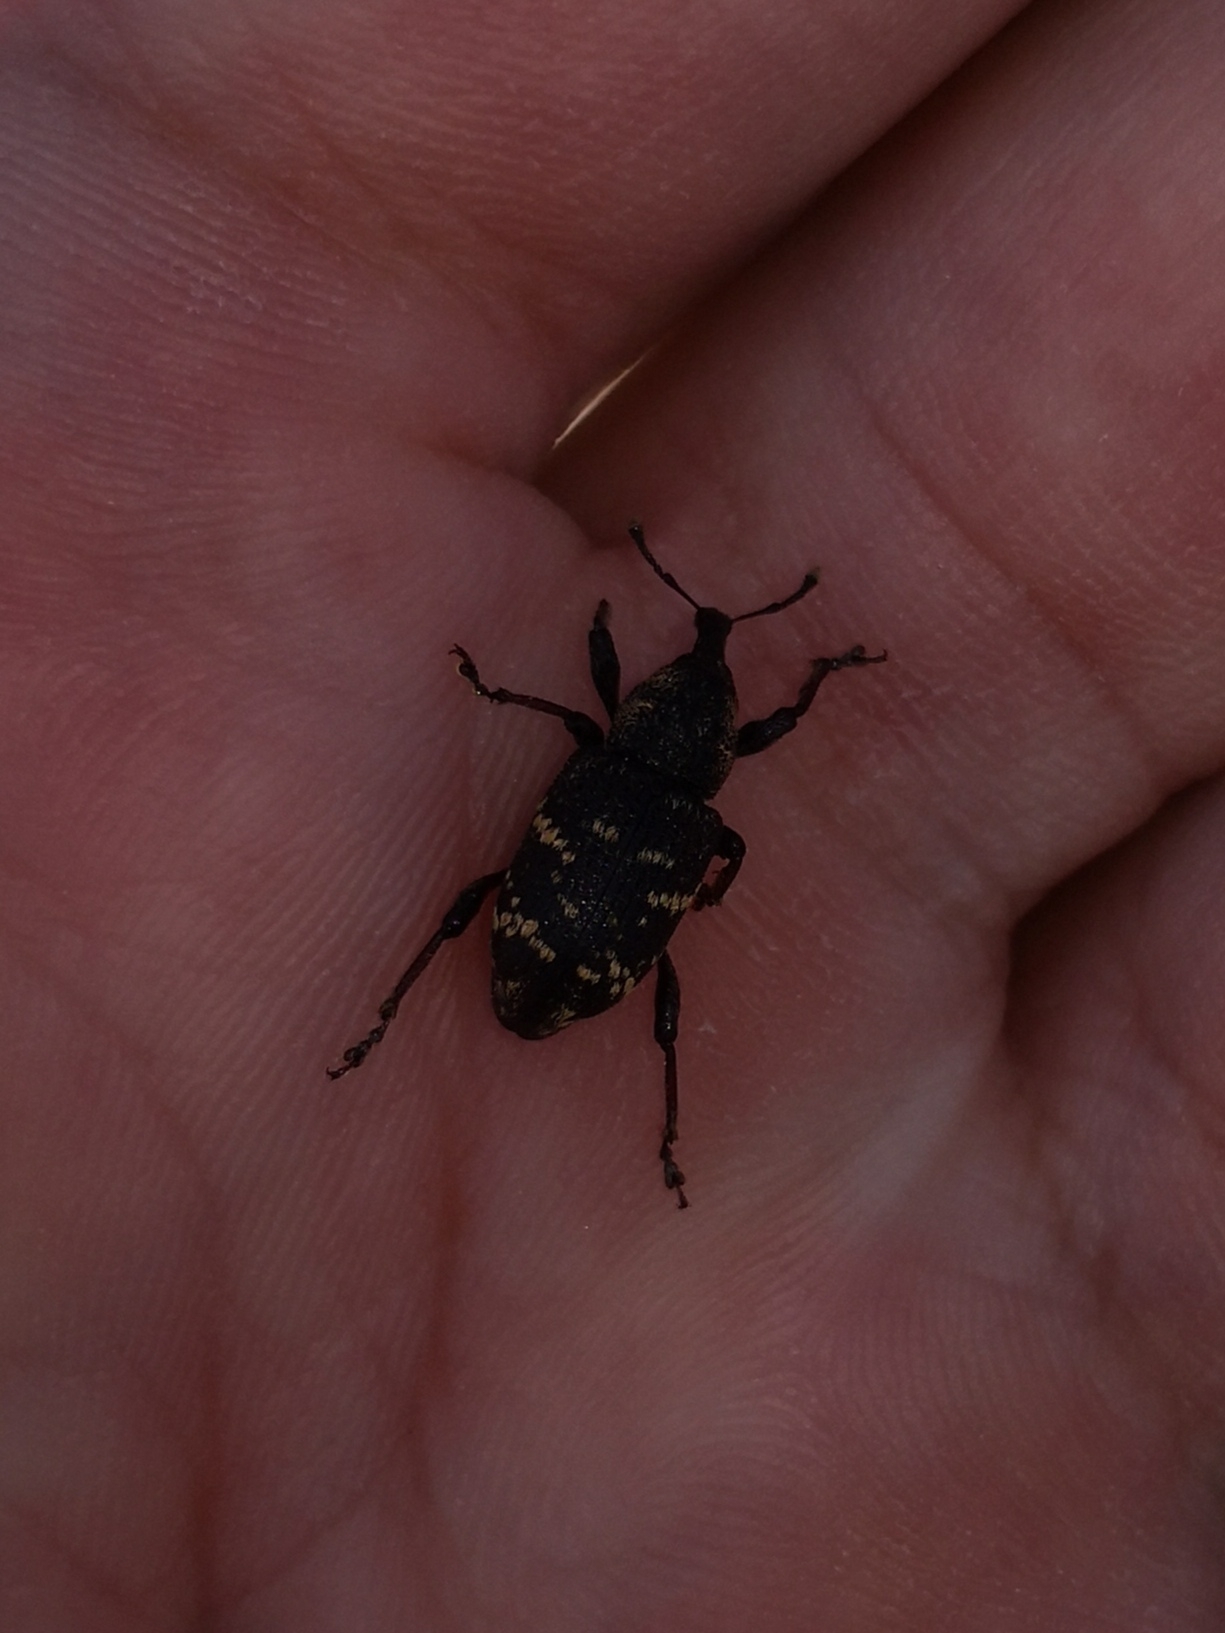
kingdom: Animalia
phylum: Arthropoda
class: Insecta
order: Coleoptera
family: Curculionidae
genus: Hylobius
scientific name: Hylobius abietis
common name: Large pine weevil
